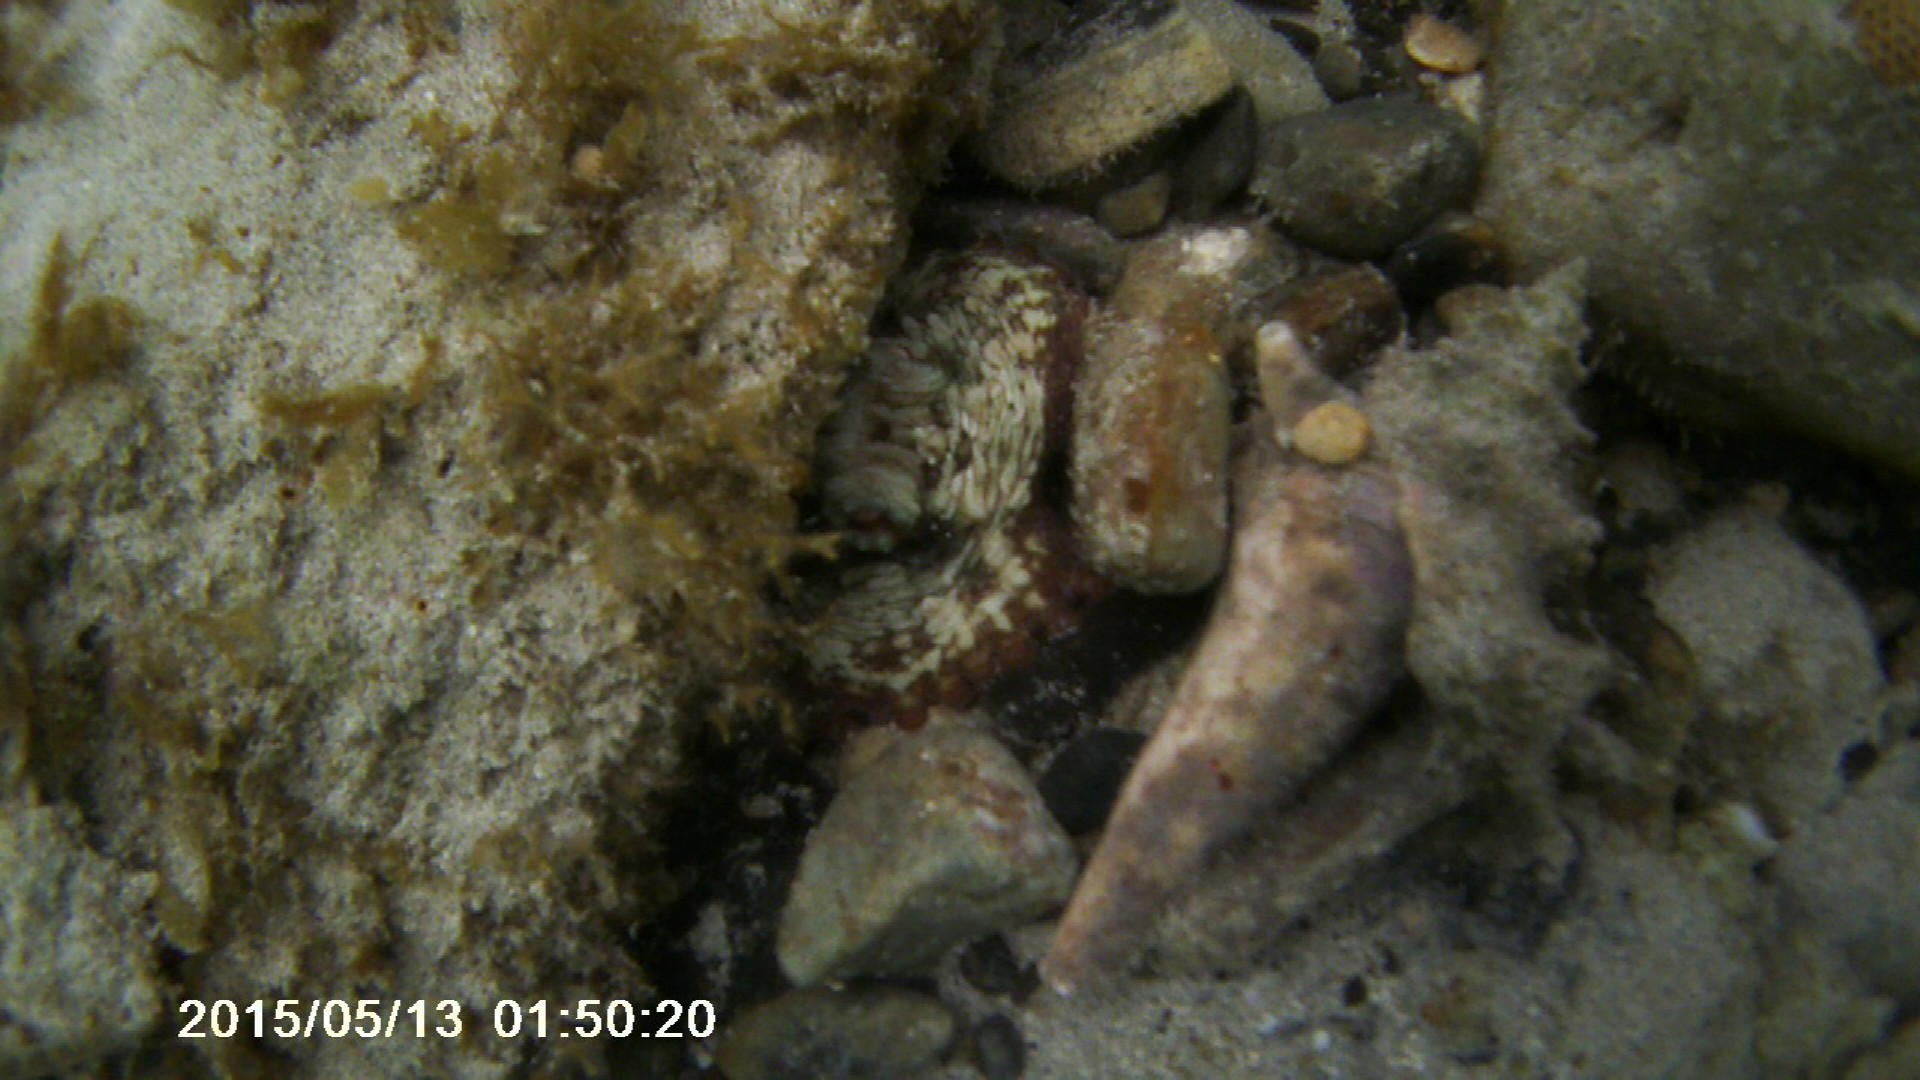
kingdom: Animalia
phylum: Mollusca
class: Cephalopoda
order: Octopoda
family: Octopodidae
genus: Octopus
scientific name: Octopus insularis
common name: Brazil reef octopus
